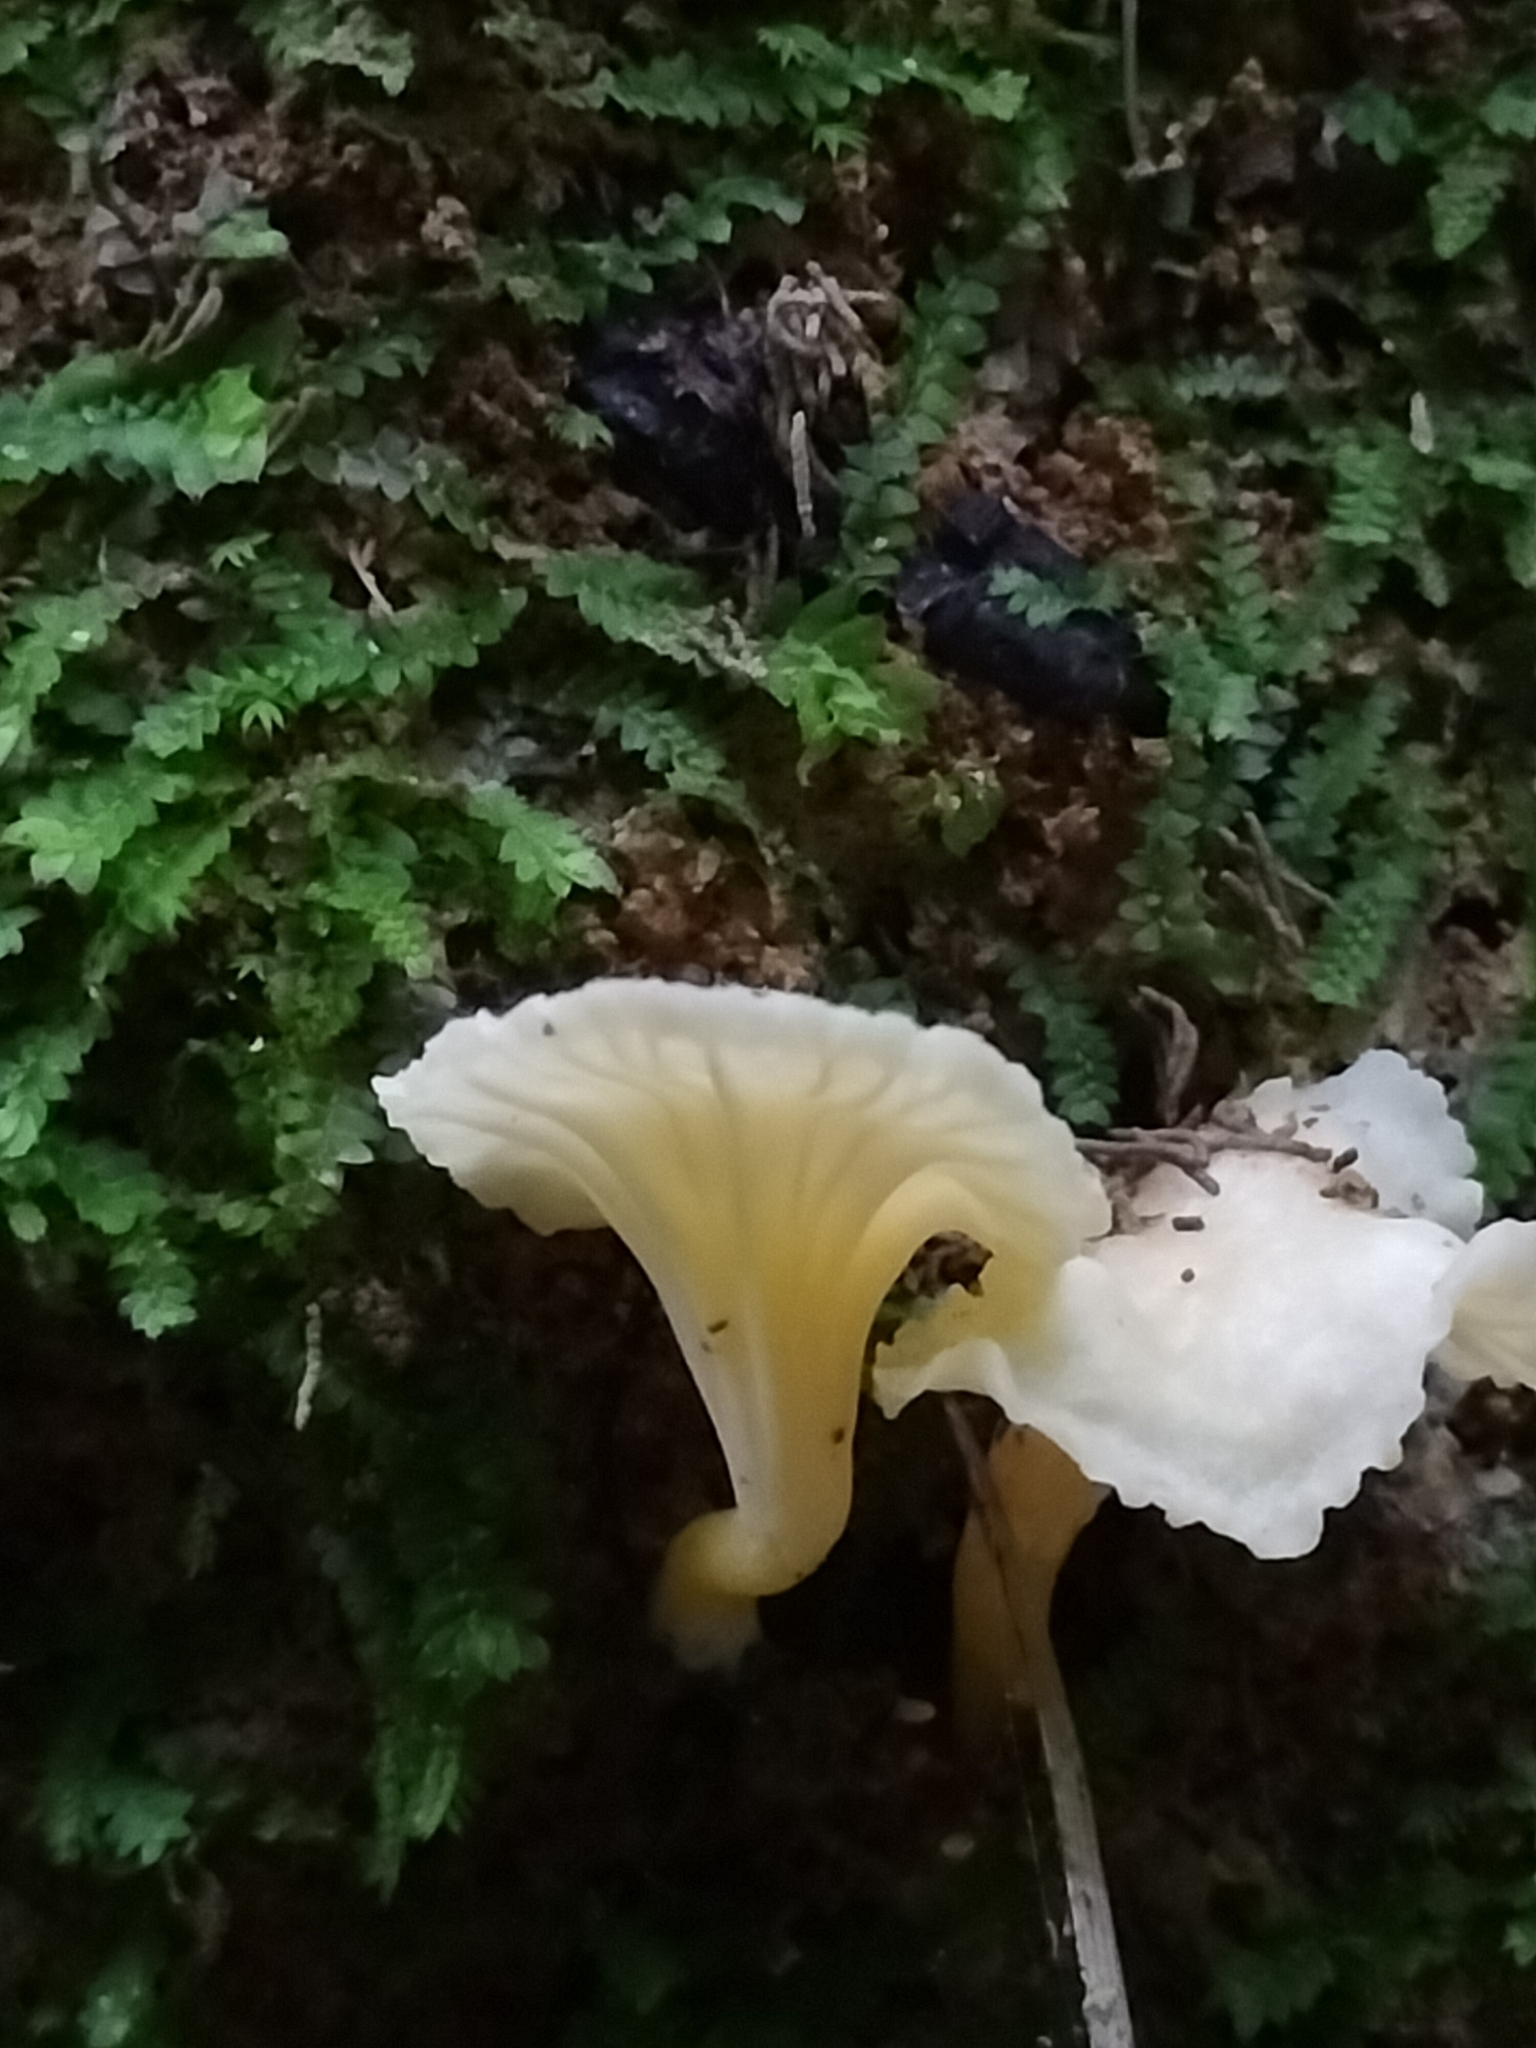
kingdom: Fungi
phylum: Basidiomycota
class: Agaricomycetes
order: Cantharellales
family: Hydnaceae
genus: Cantharellus
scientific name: Cantharellus wellingtonensis
